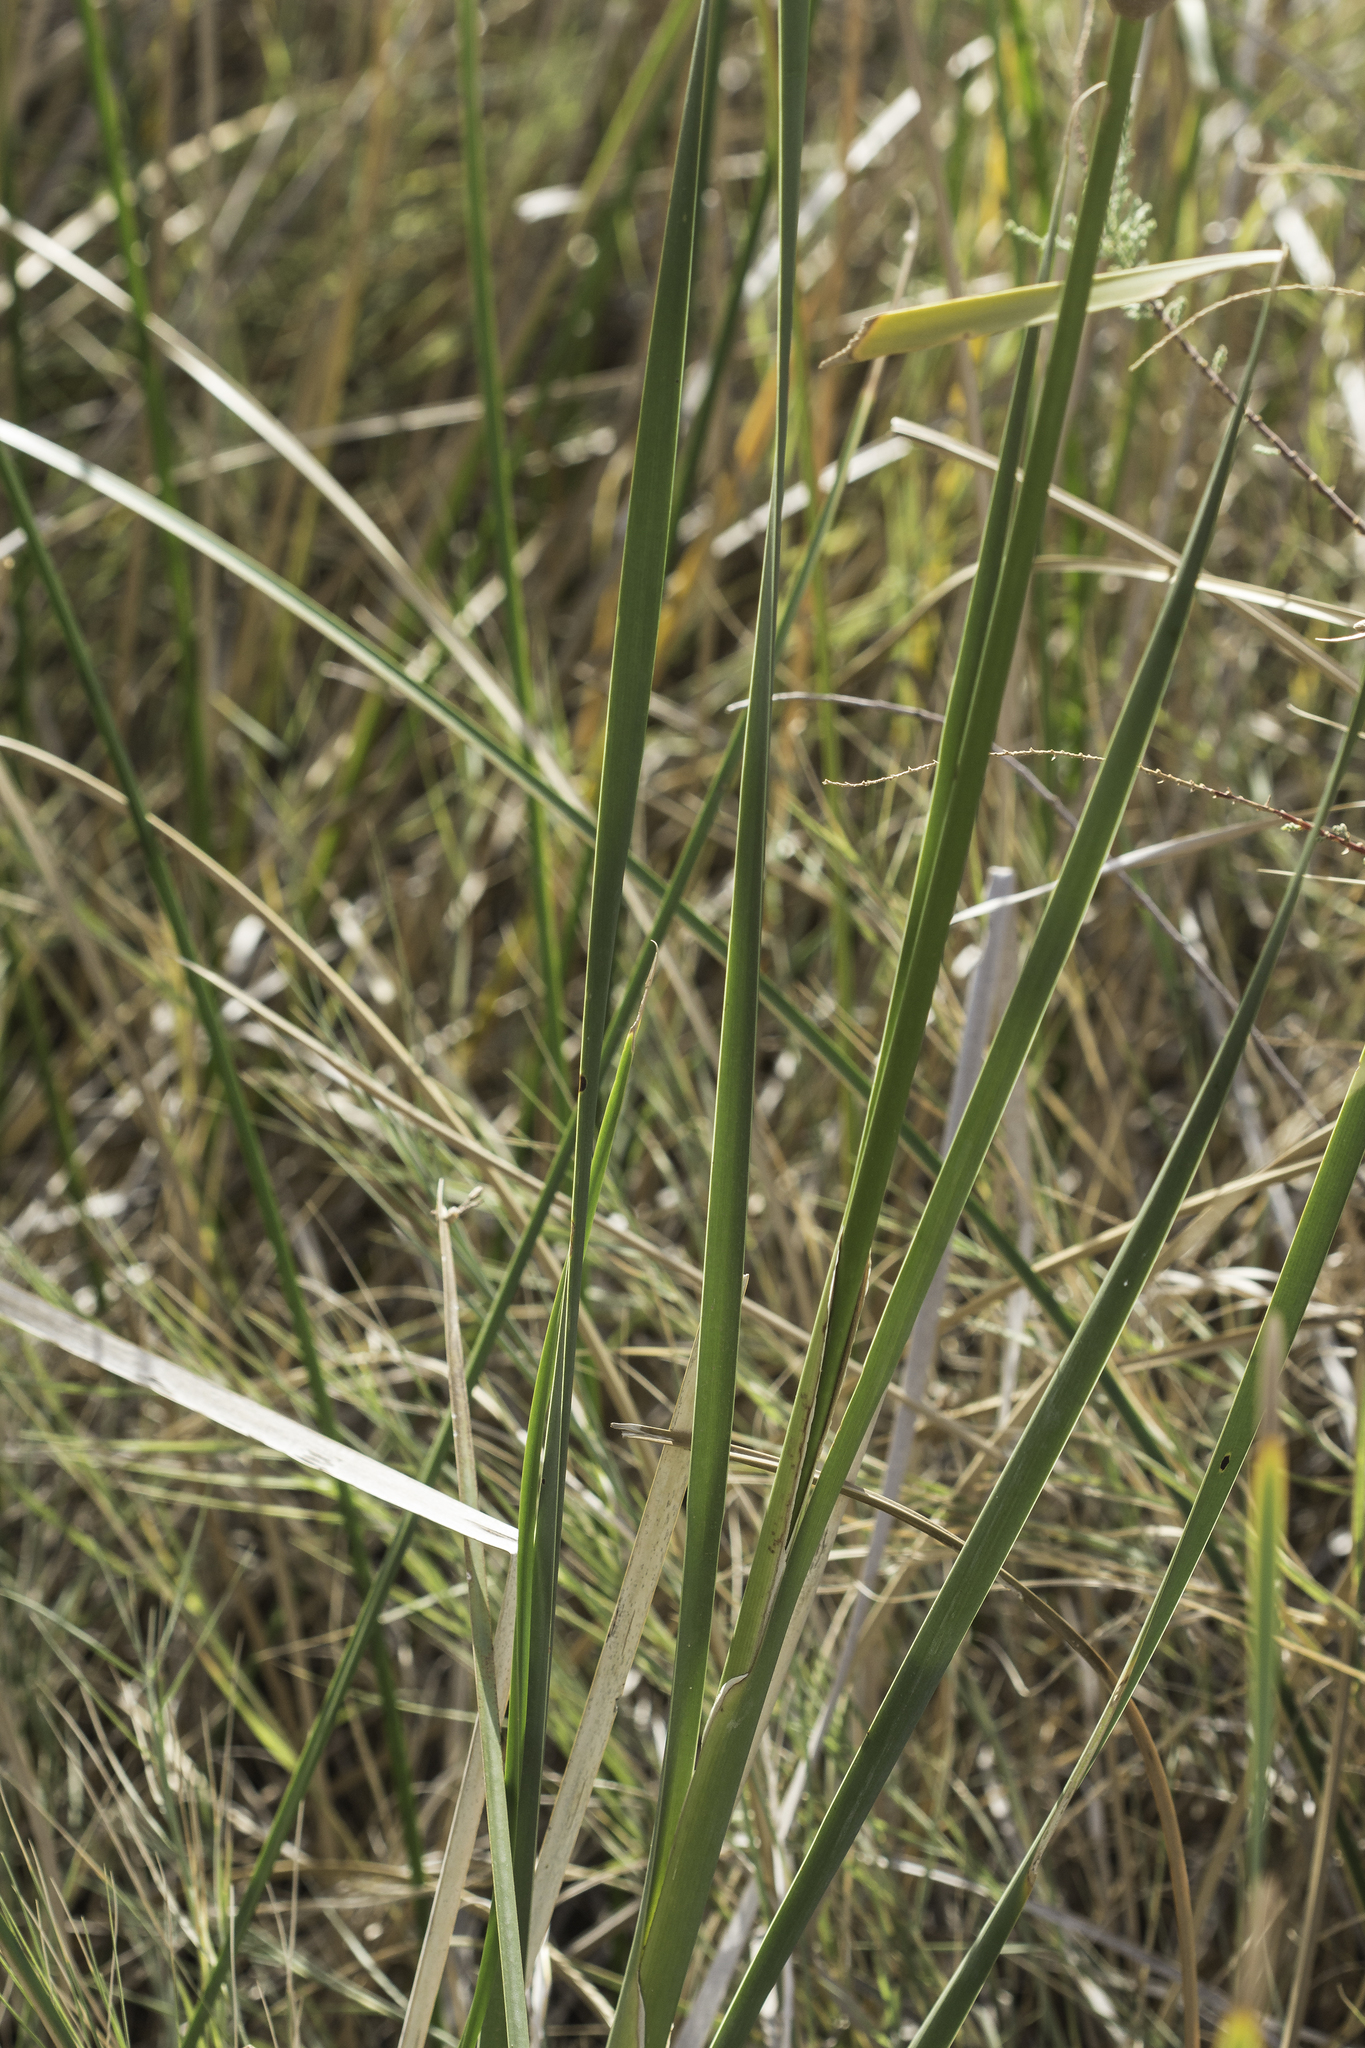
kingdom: Plantae
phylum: Tracheophyta
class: Liliopsida
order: Poales
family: Typhaceae
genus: Typha
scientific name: Typha domingensis
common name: Southern cattail
